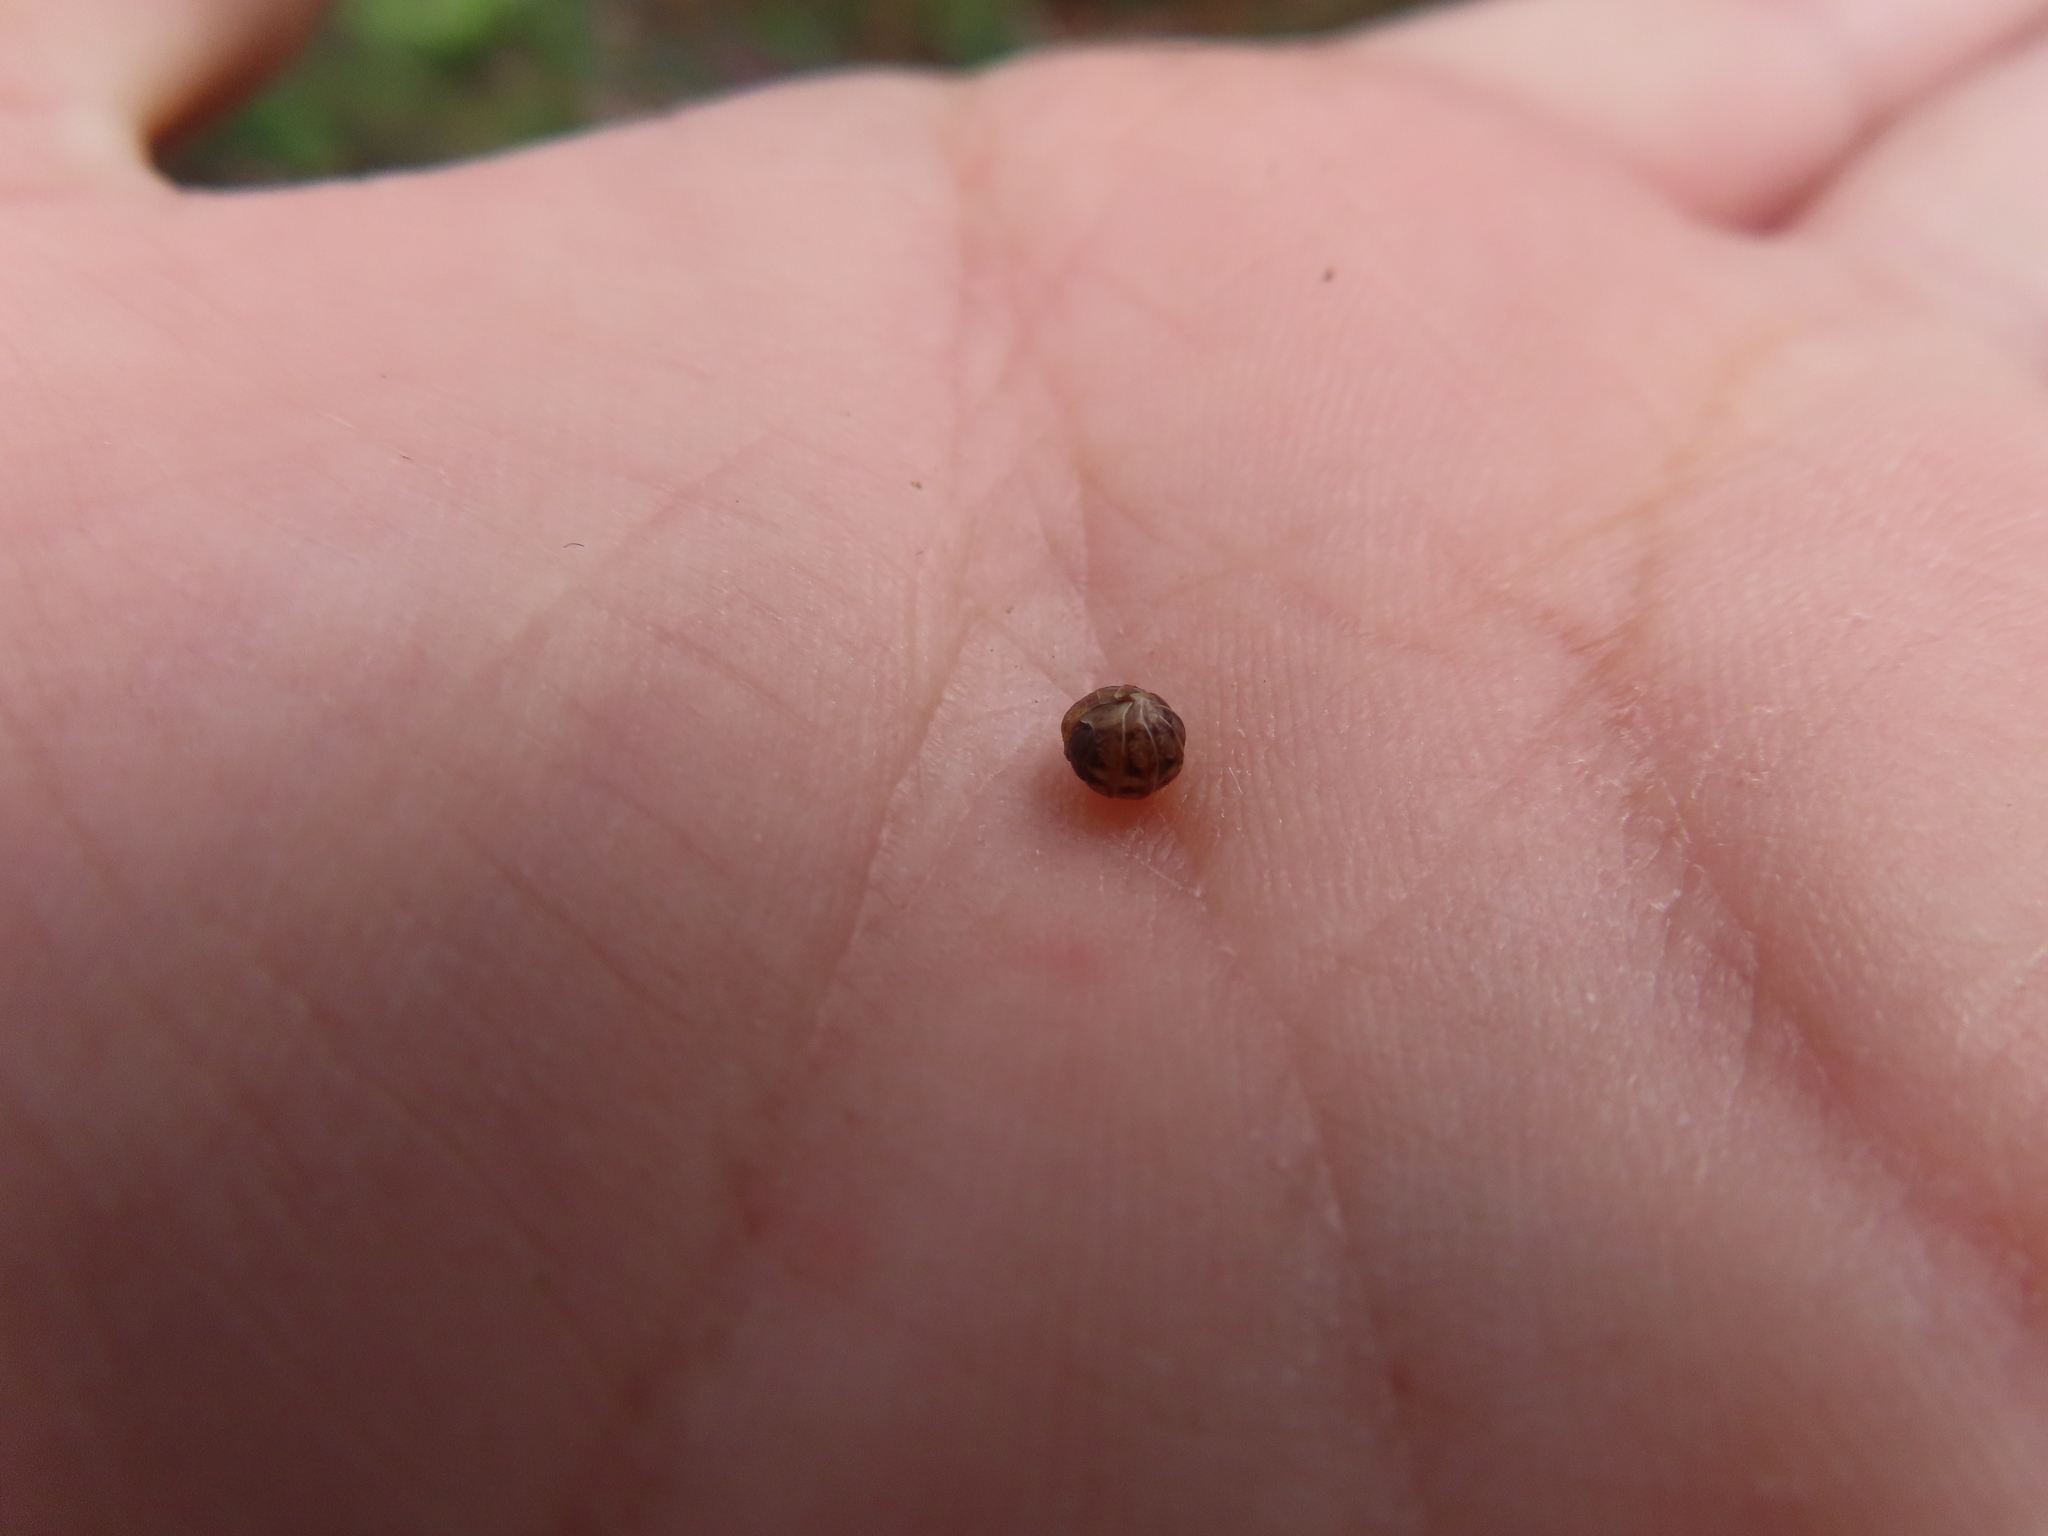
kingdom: Animalia
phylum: Arthropoda
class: Malacostraca
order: Isopoda
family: Armadillidiidae
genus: Armadillidium
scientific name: Armadillidium vulgare
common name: Common pill woodlouse
